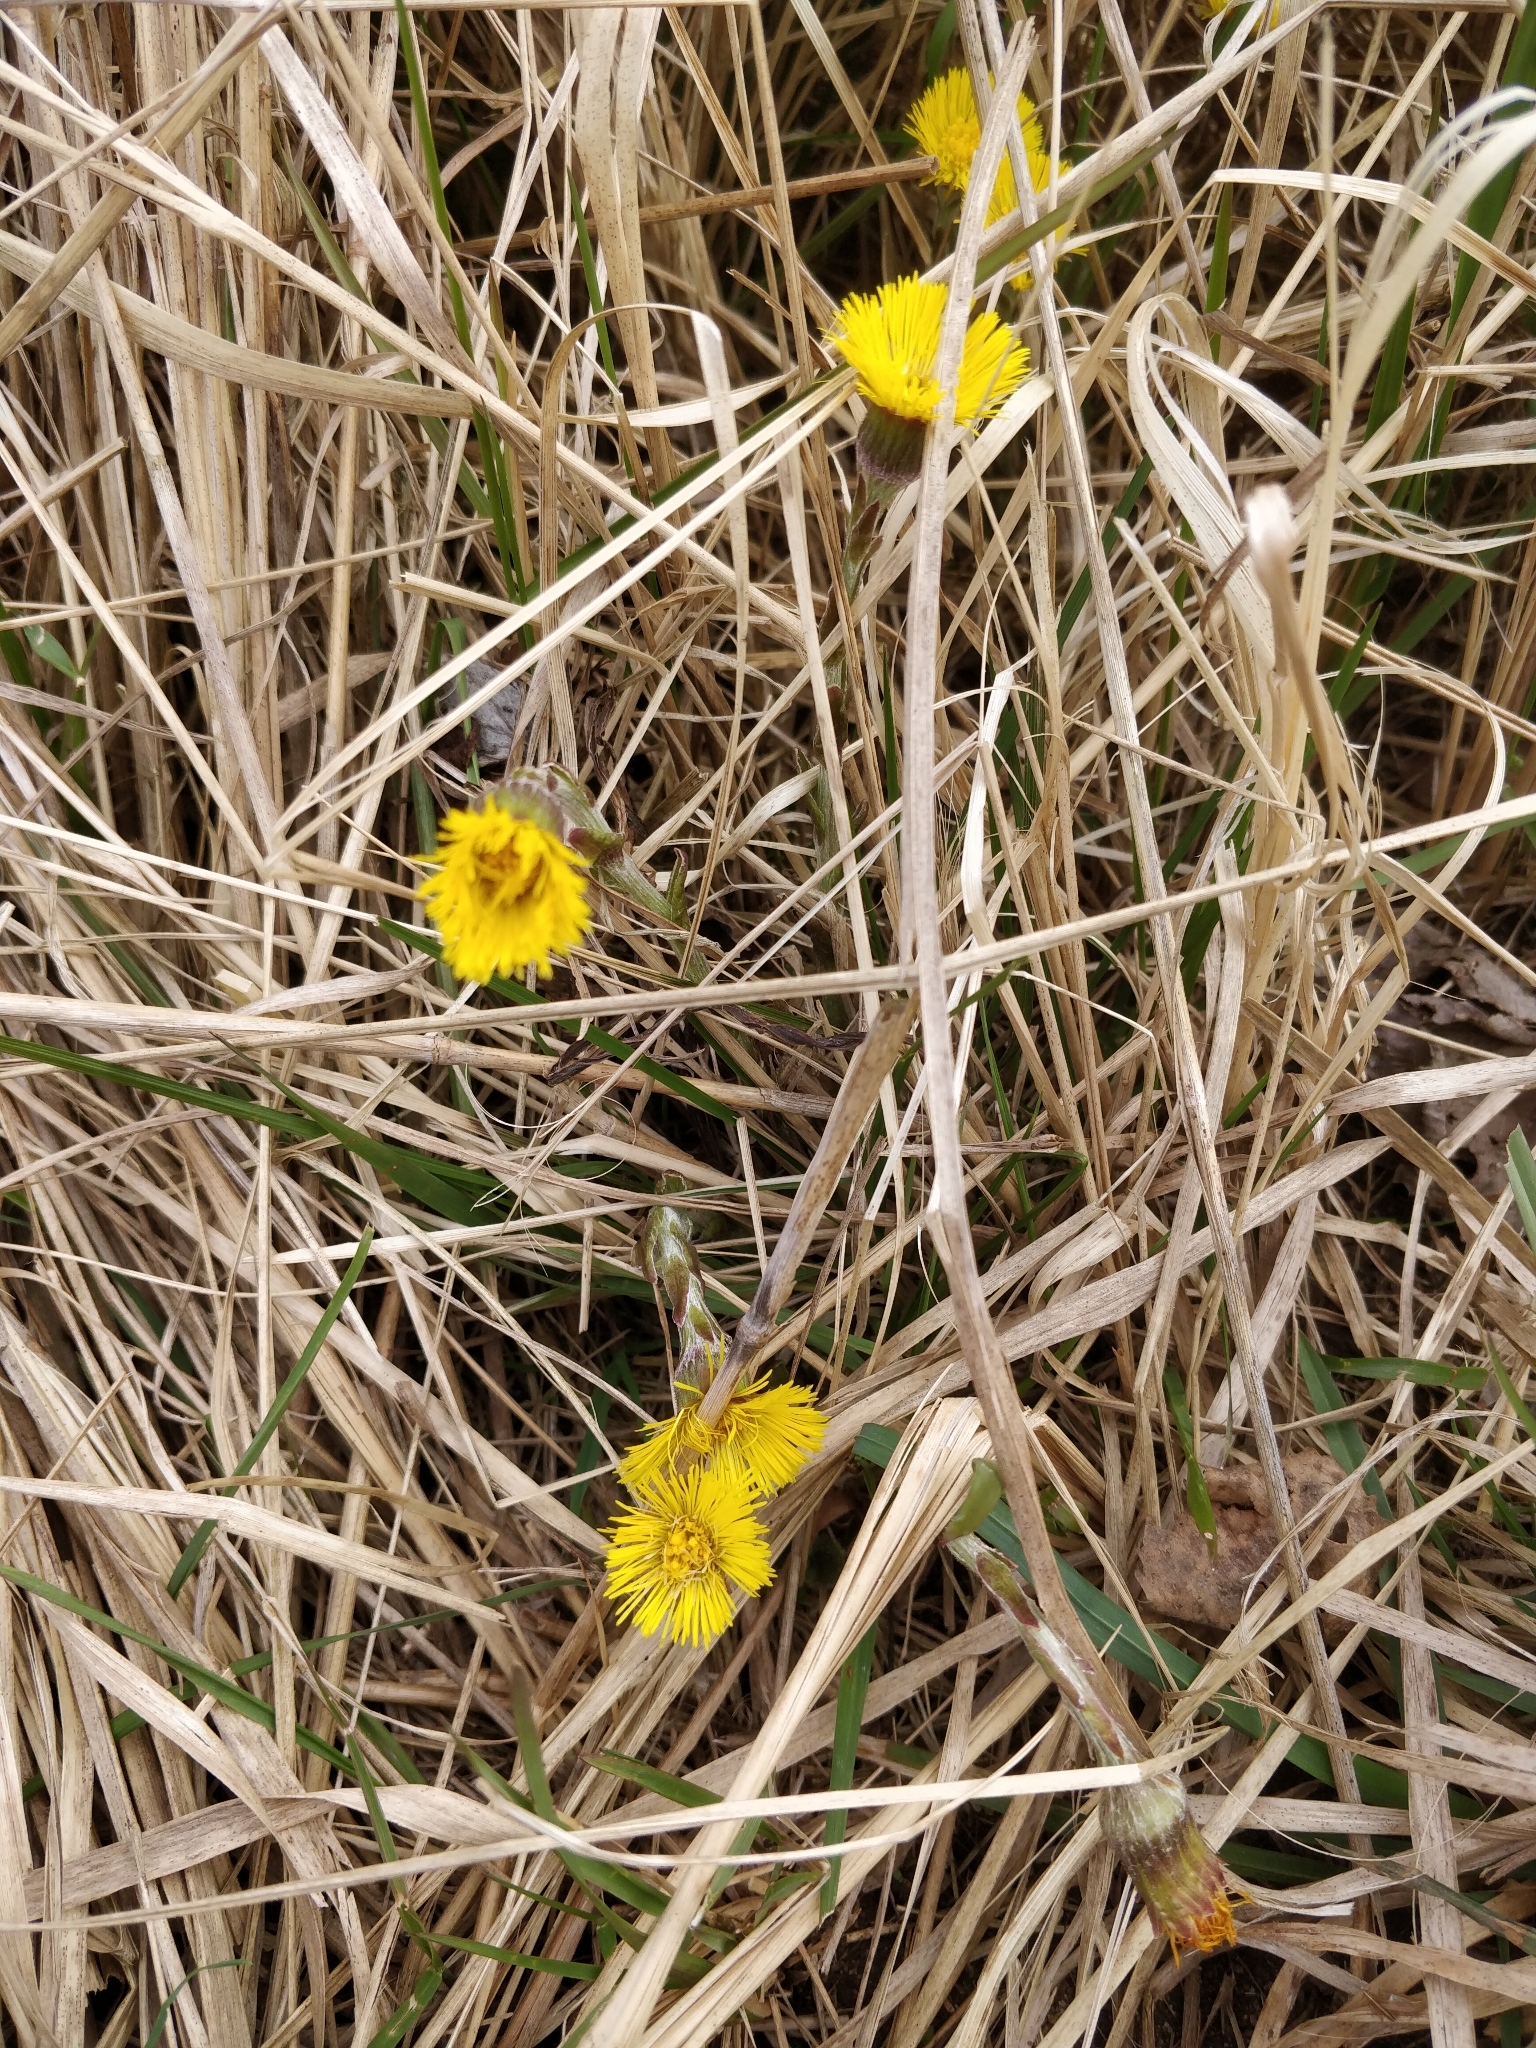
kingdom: Plantae
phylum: Tracheophyta
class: Magnoliopsida
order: Asterales
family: Asteraceae
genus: Tussilago
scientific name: Tussilago farfara
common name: Coltsfoot
